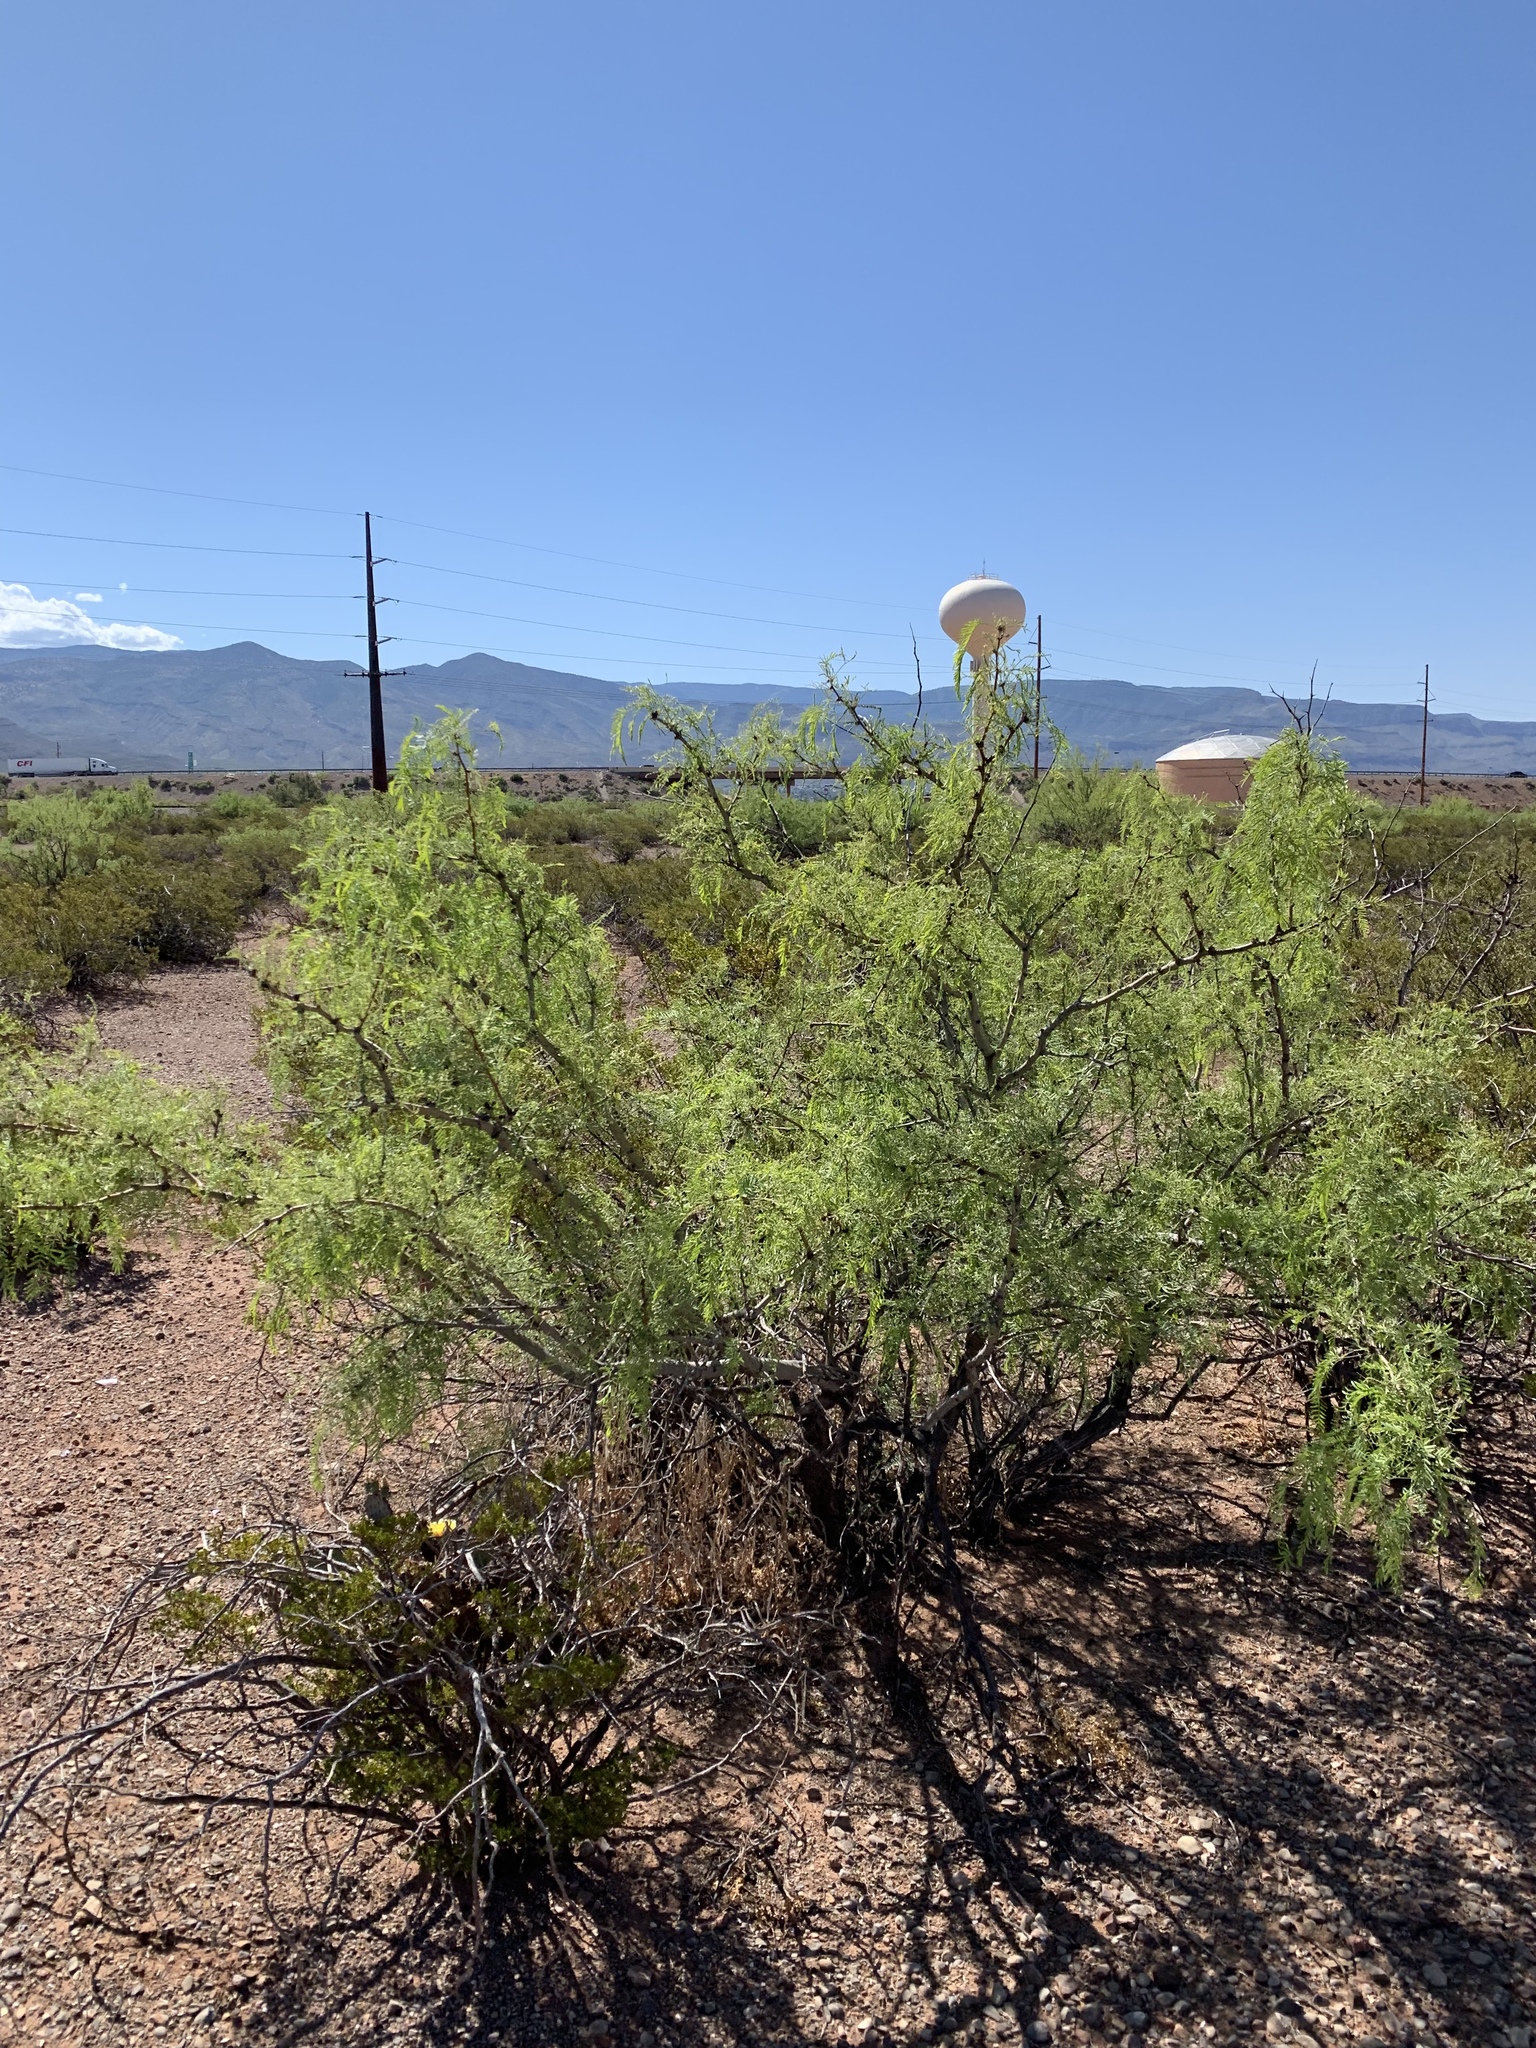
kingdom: Plantae
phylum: Tracheophyta
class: Magnoliopsida
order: Fabales
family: Fabaceae
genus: Prosopis
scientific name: Prosopis glandulosa
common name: Honey mesquite
